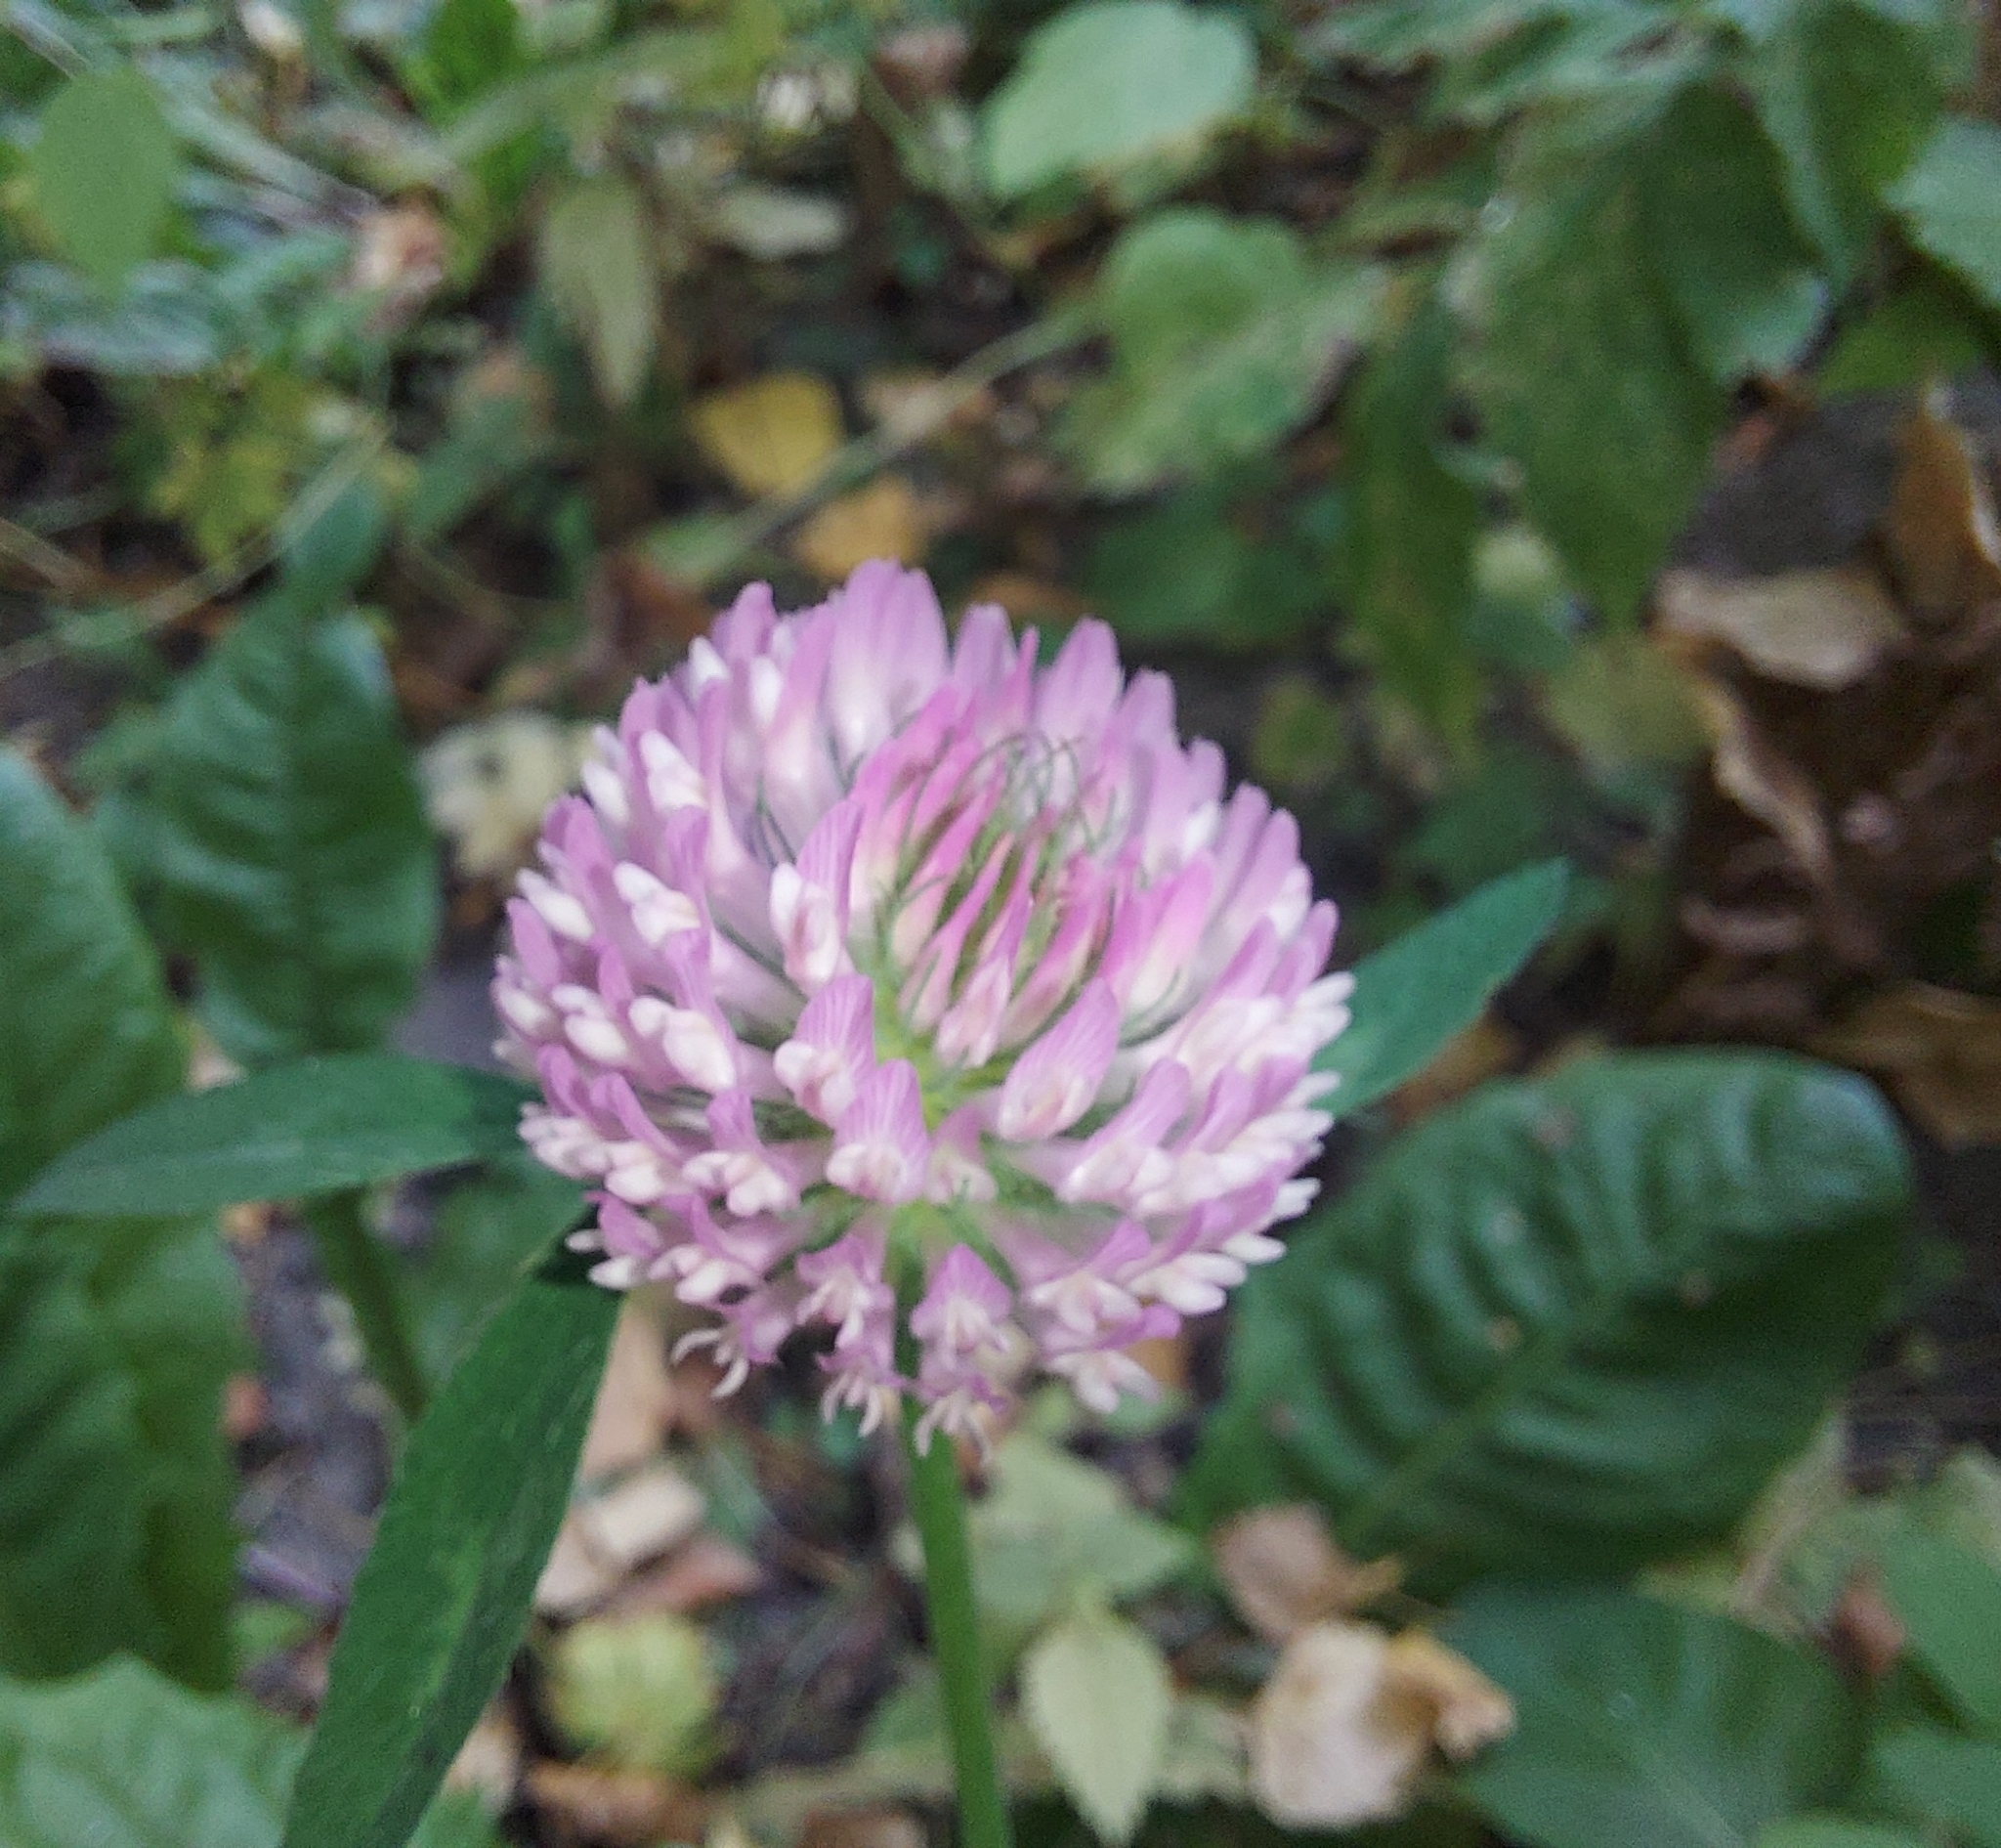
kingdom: Plantae
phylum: Tracheophyta
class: Magnoliopsida
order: Fabales
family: Fabaceae
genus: Trifolium
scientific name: Trifolium pratense
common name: Red clover
